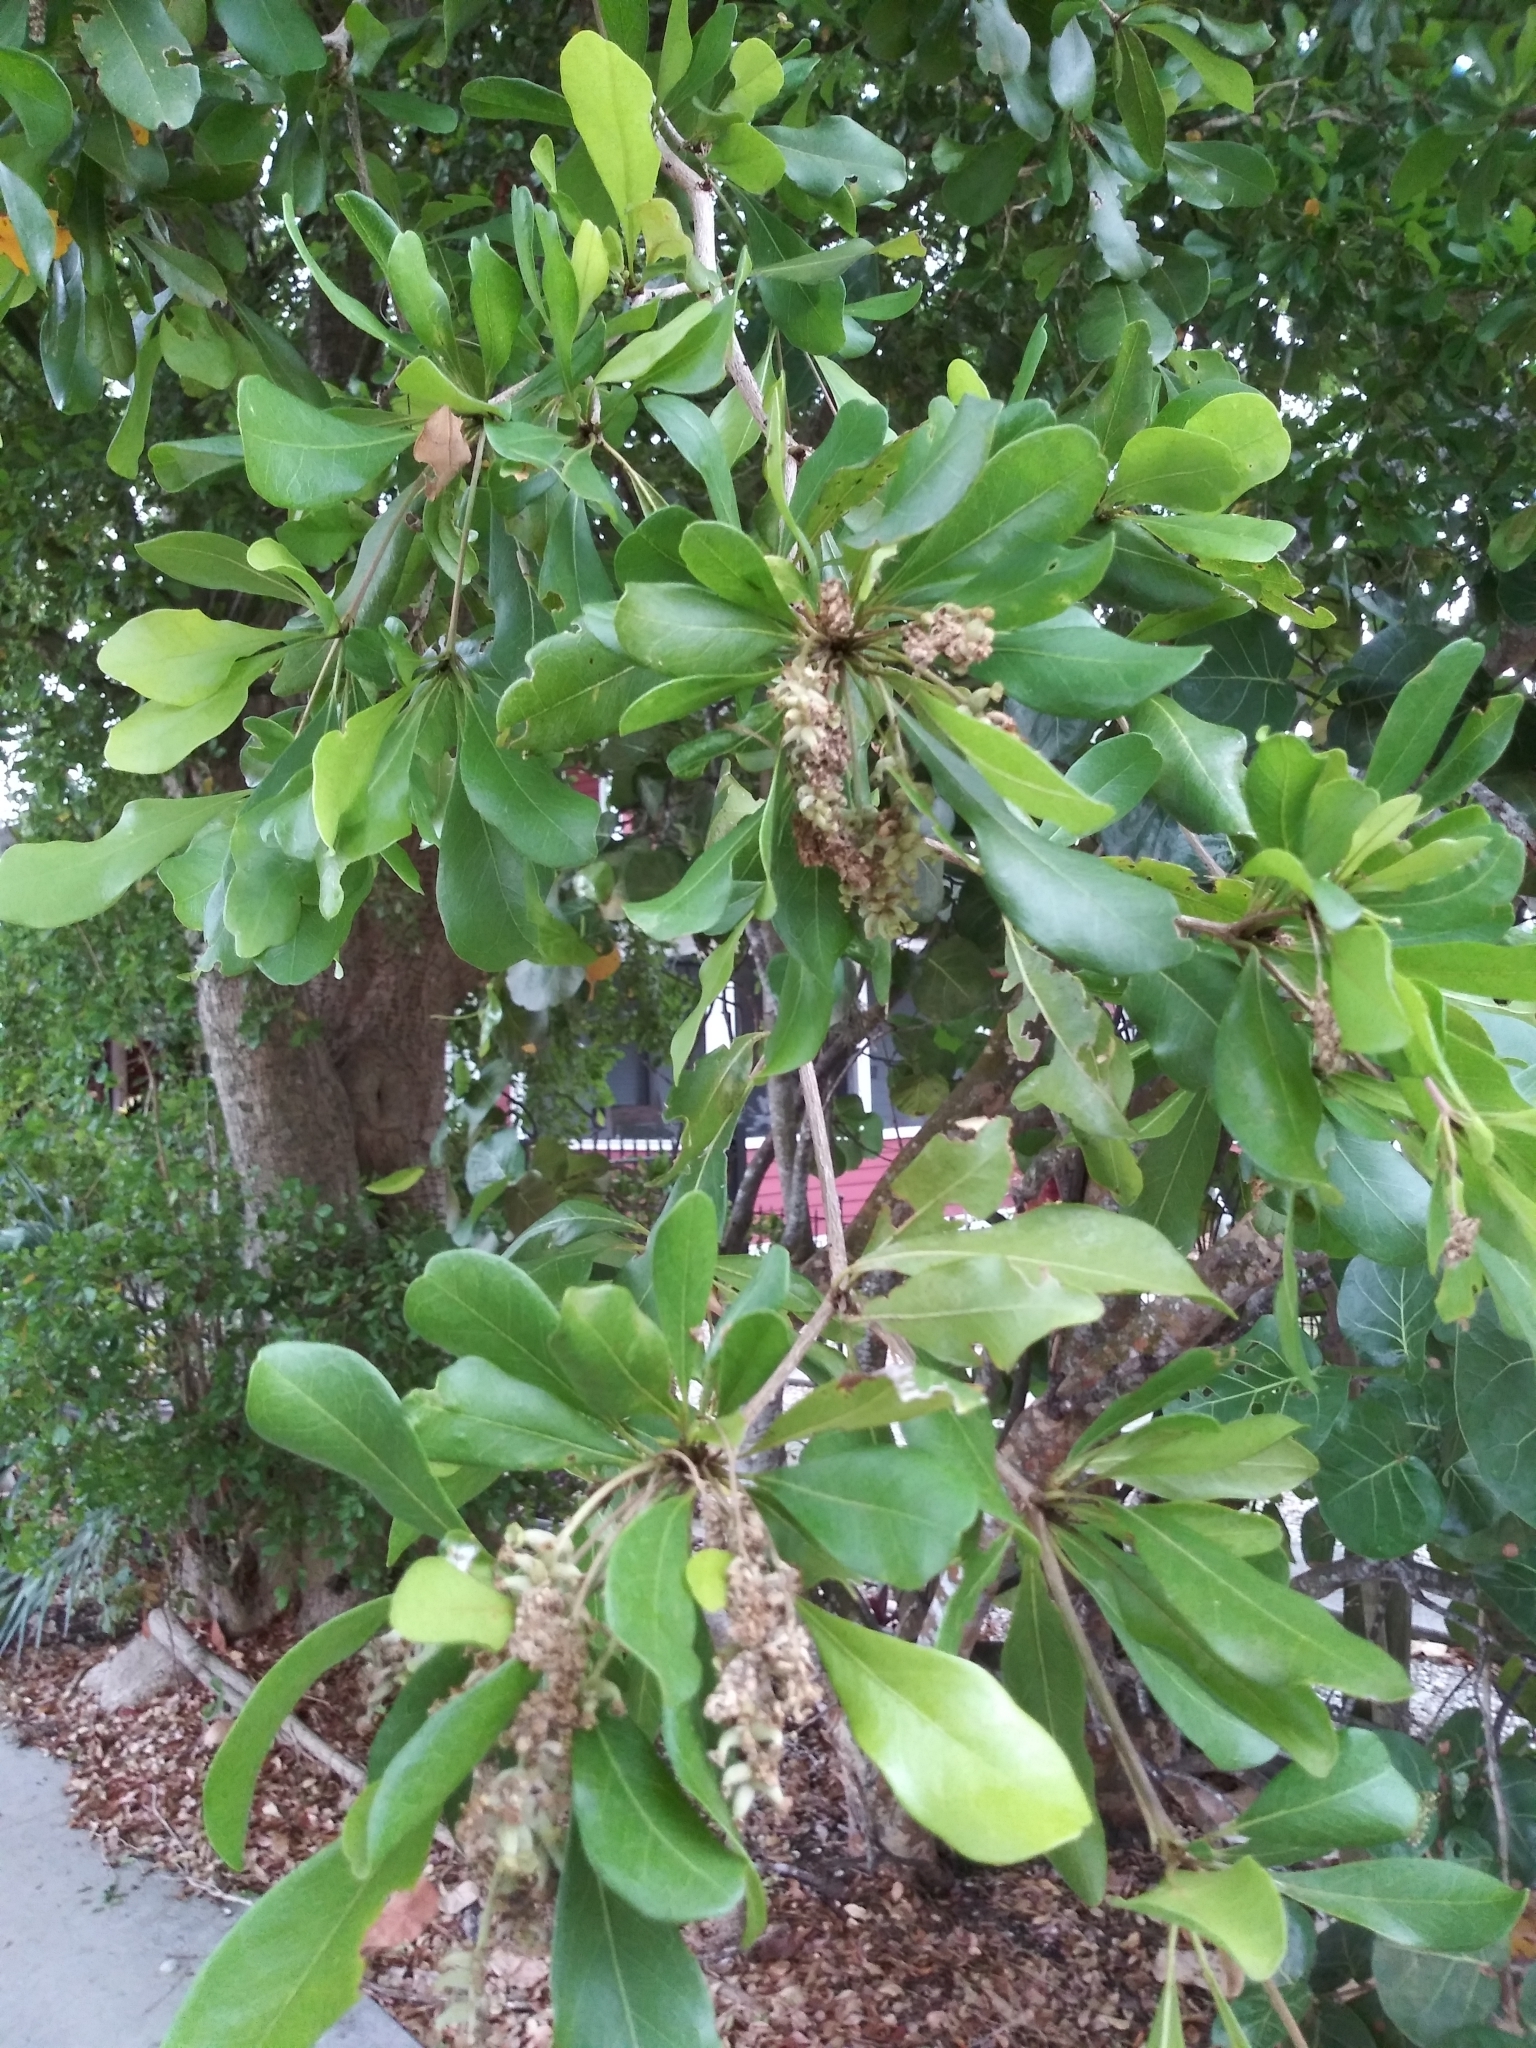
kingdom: Plantae
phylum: Tracheophyta
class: Magnoliopsida
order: Myrtales
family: Combretaceae
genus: Terminalia
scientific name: Terminalia buceras
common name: Black-olive
